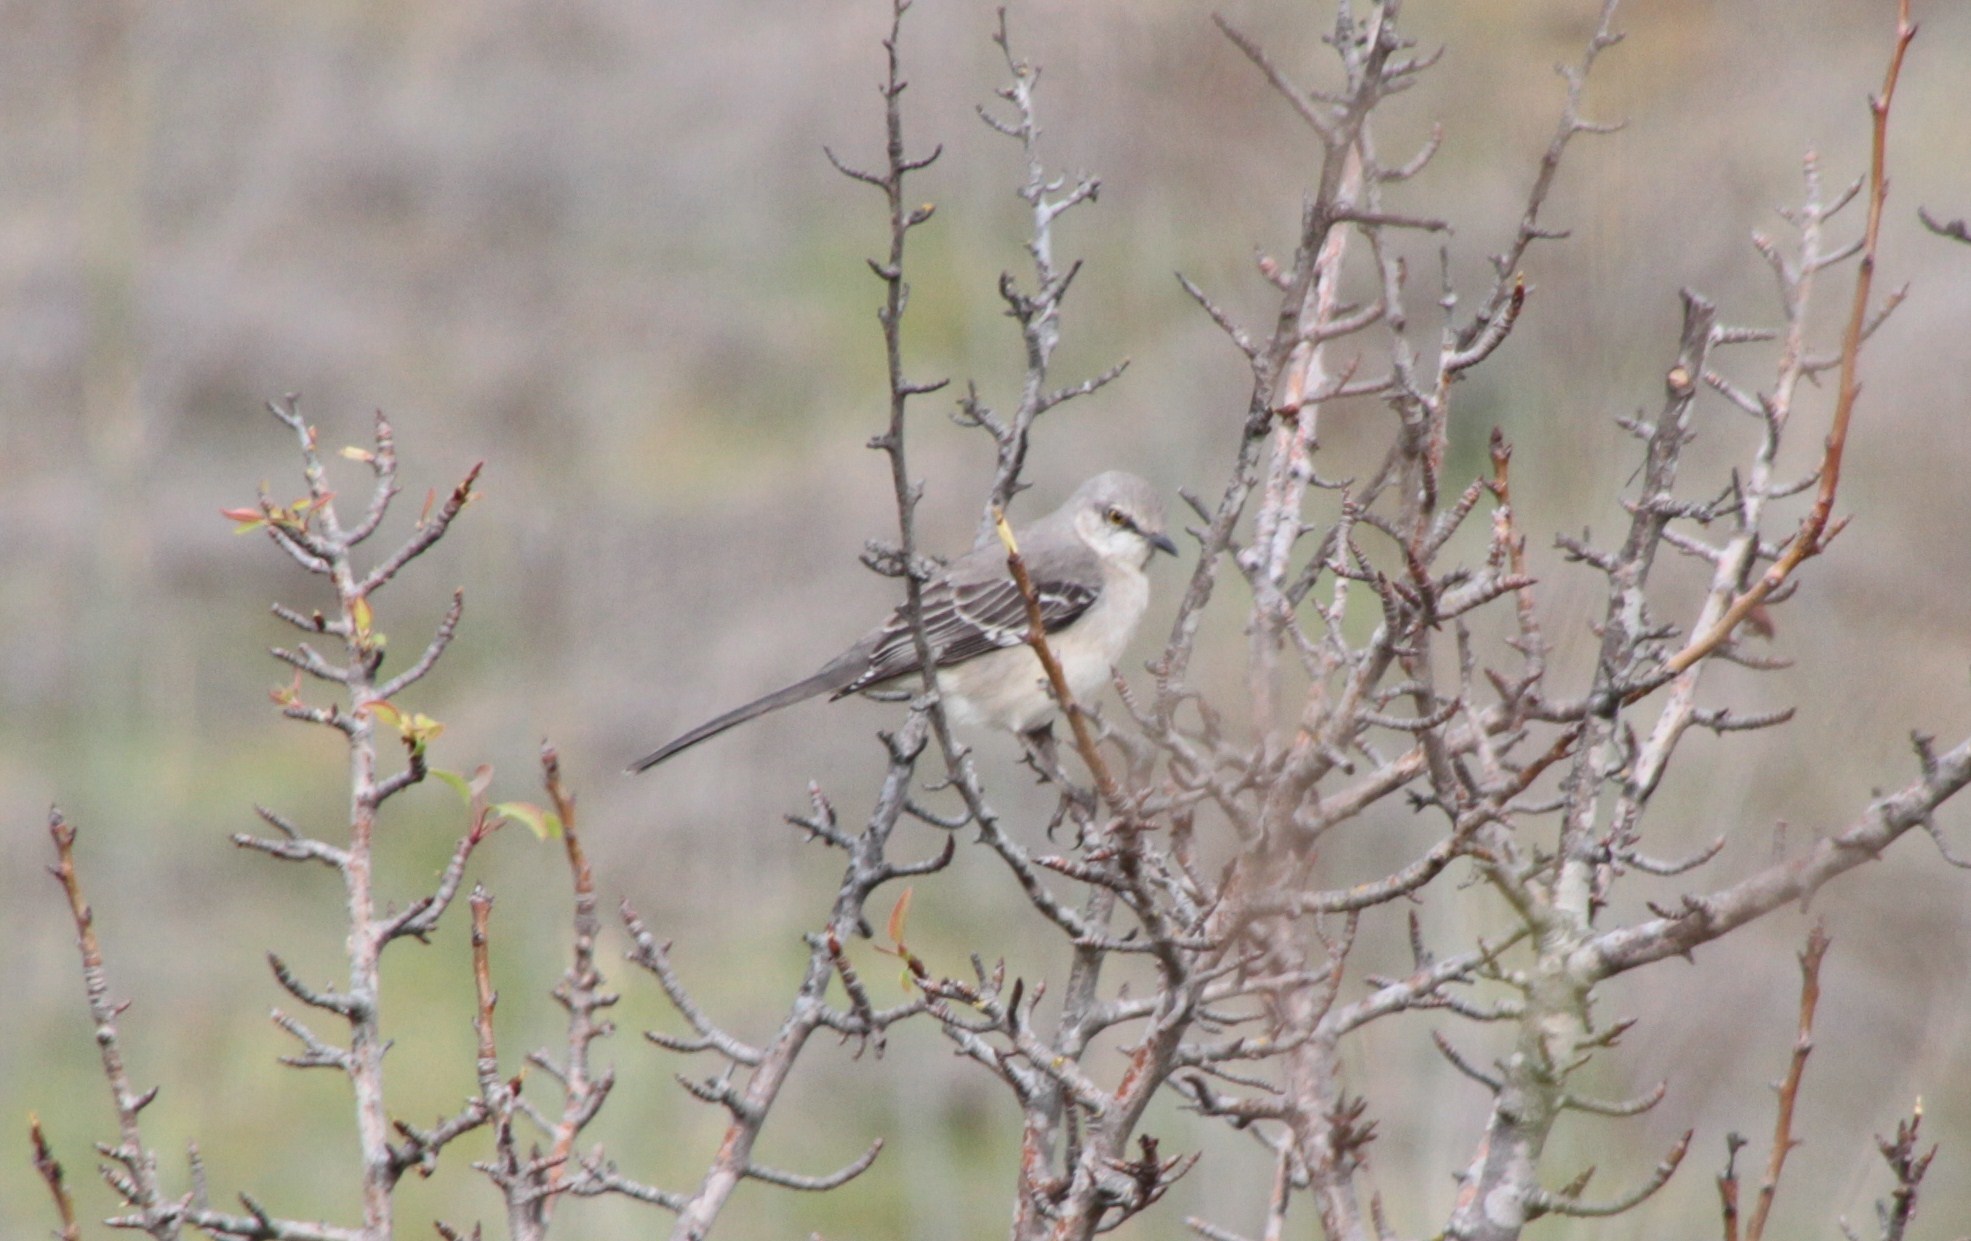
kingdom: Animalia
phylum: Chordata
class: Aves
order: Passeriformes
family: Mimidae
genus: Mimus
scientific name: Mimus polyglottos
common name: Northern mockingbird
